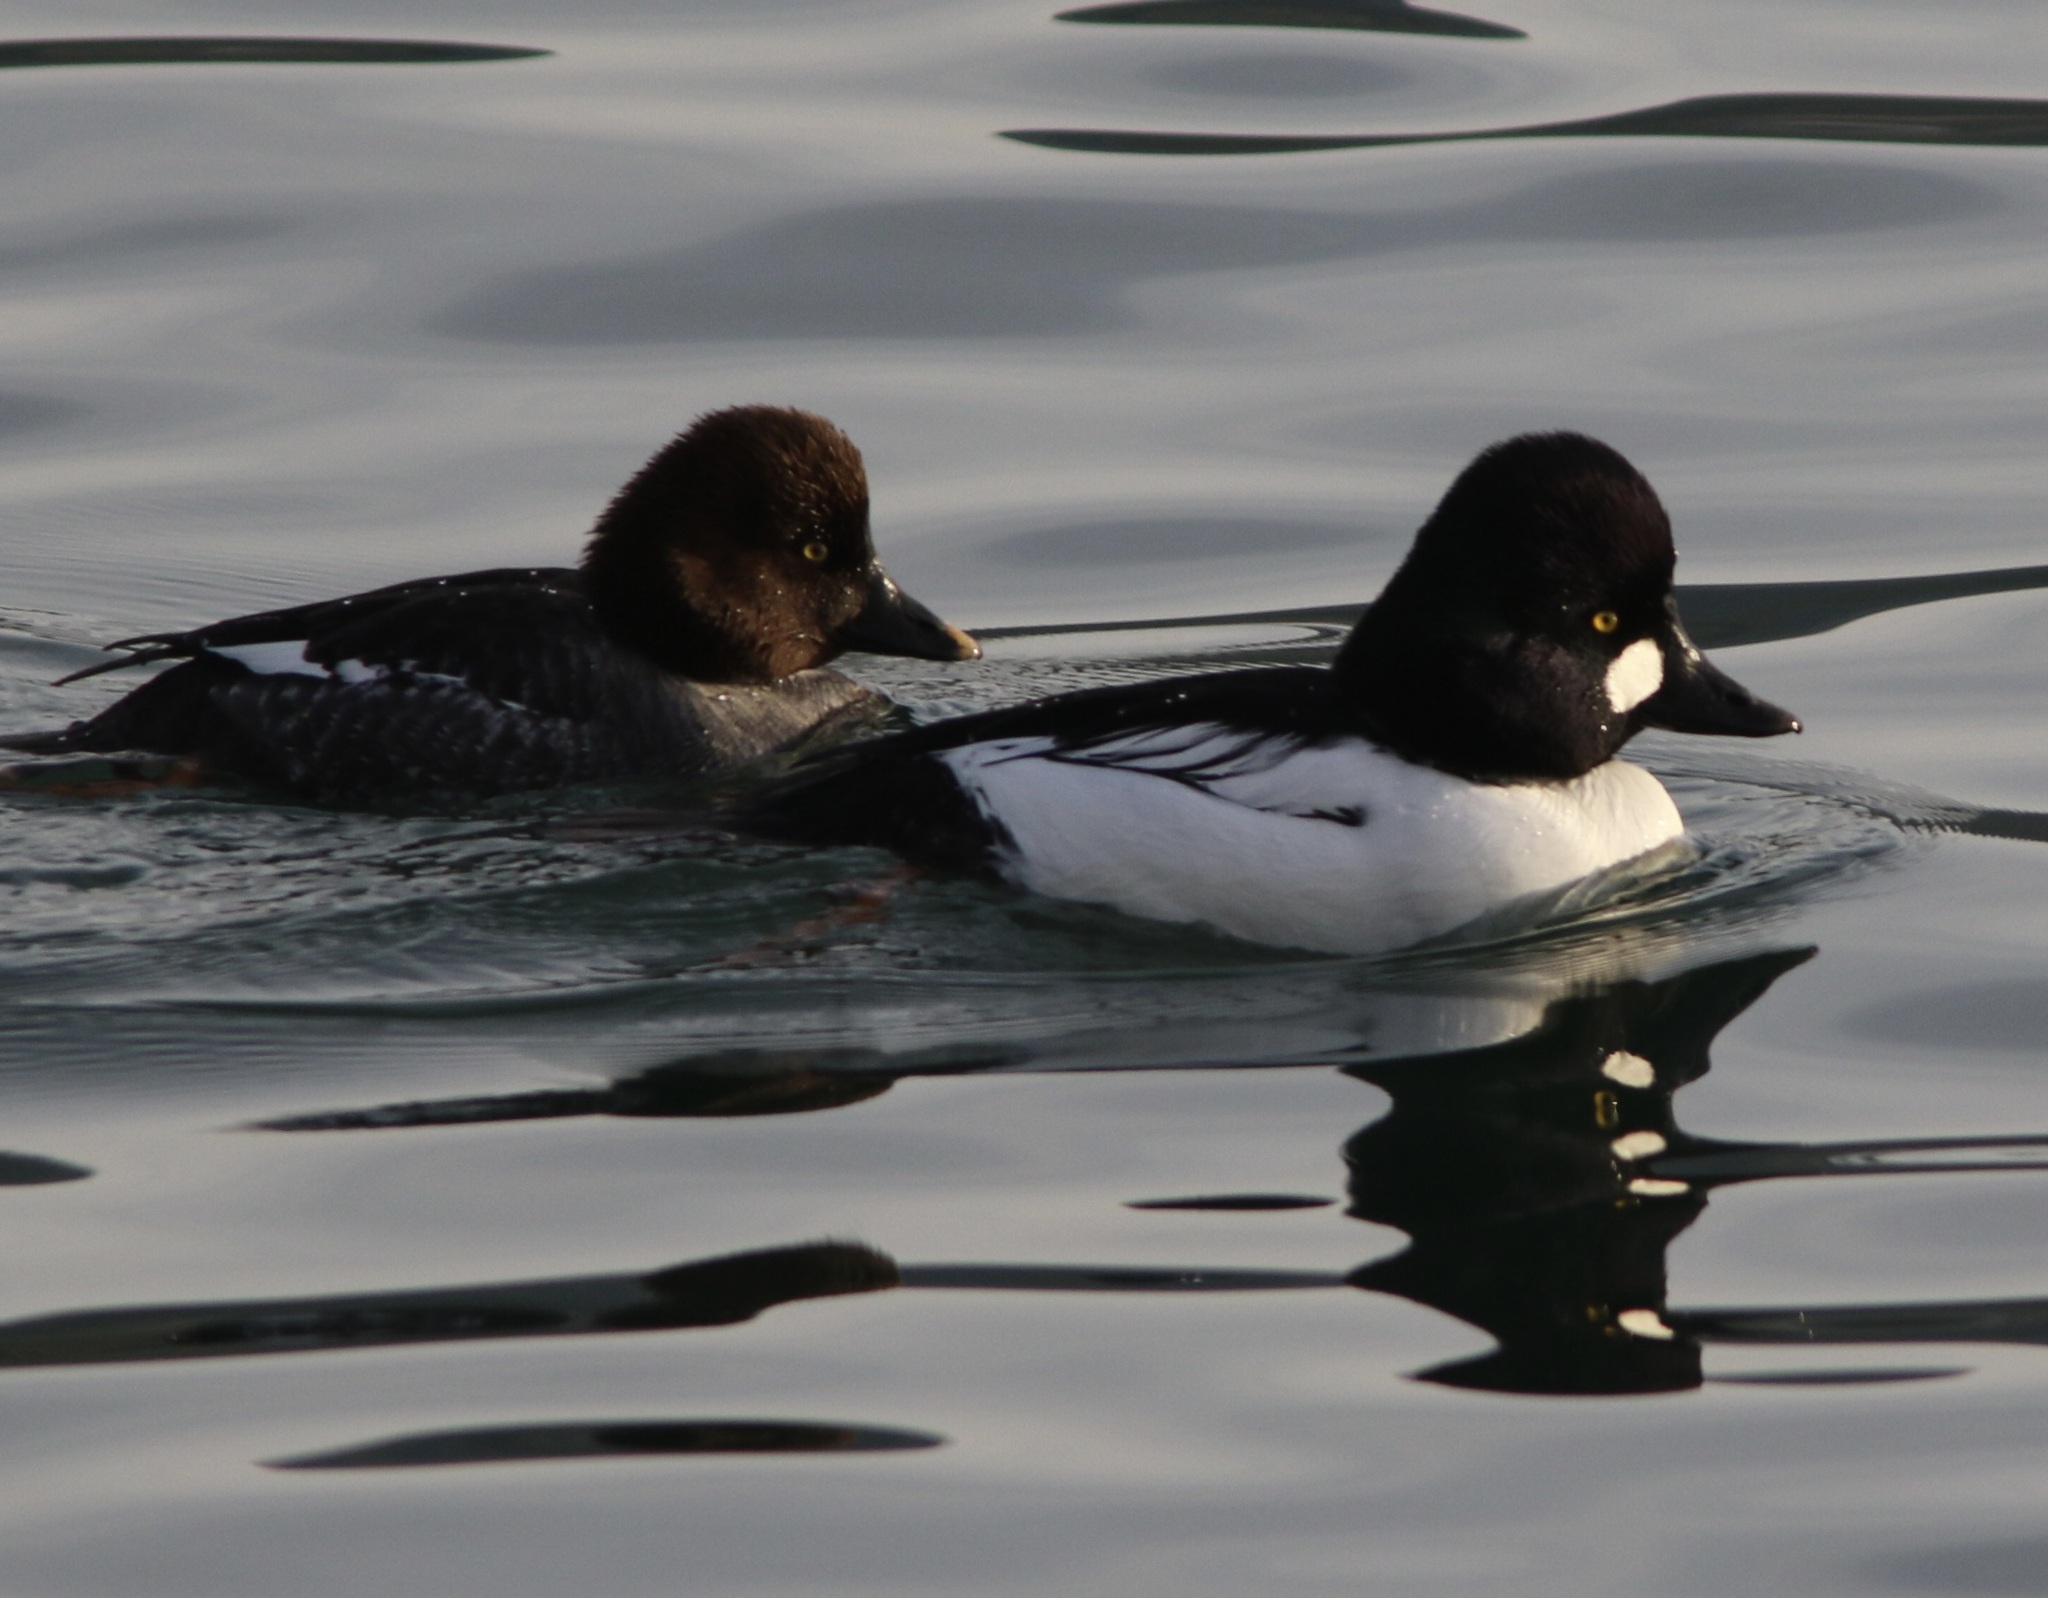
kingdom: Animalia
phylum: Chordata
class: Aves
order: Anseriformes
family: Anatidae
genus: Bucephala
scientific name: Bucephala clangula
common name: Common goldeneye
